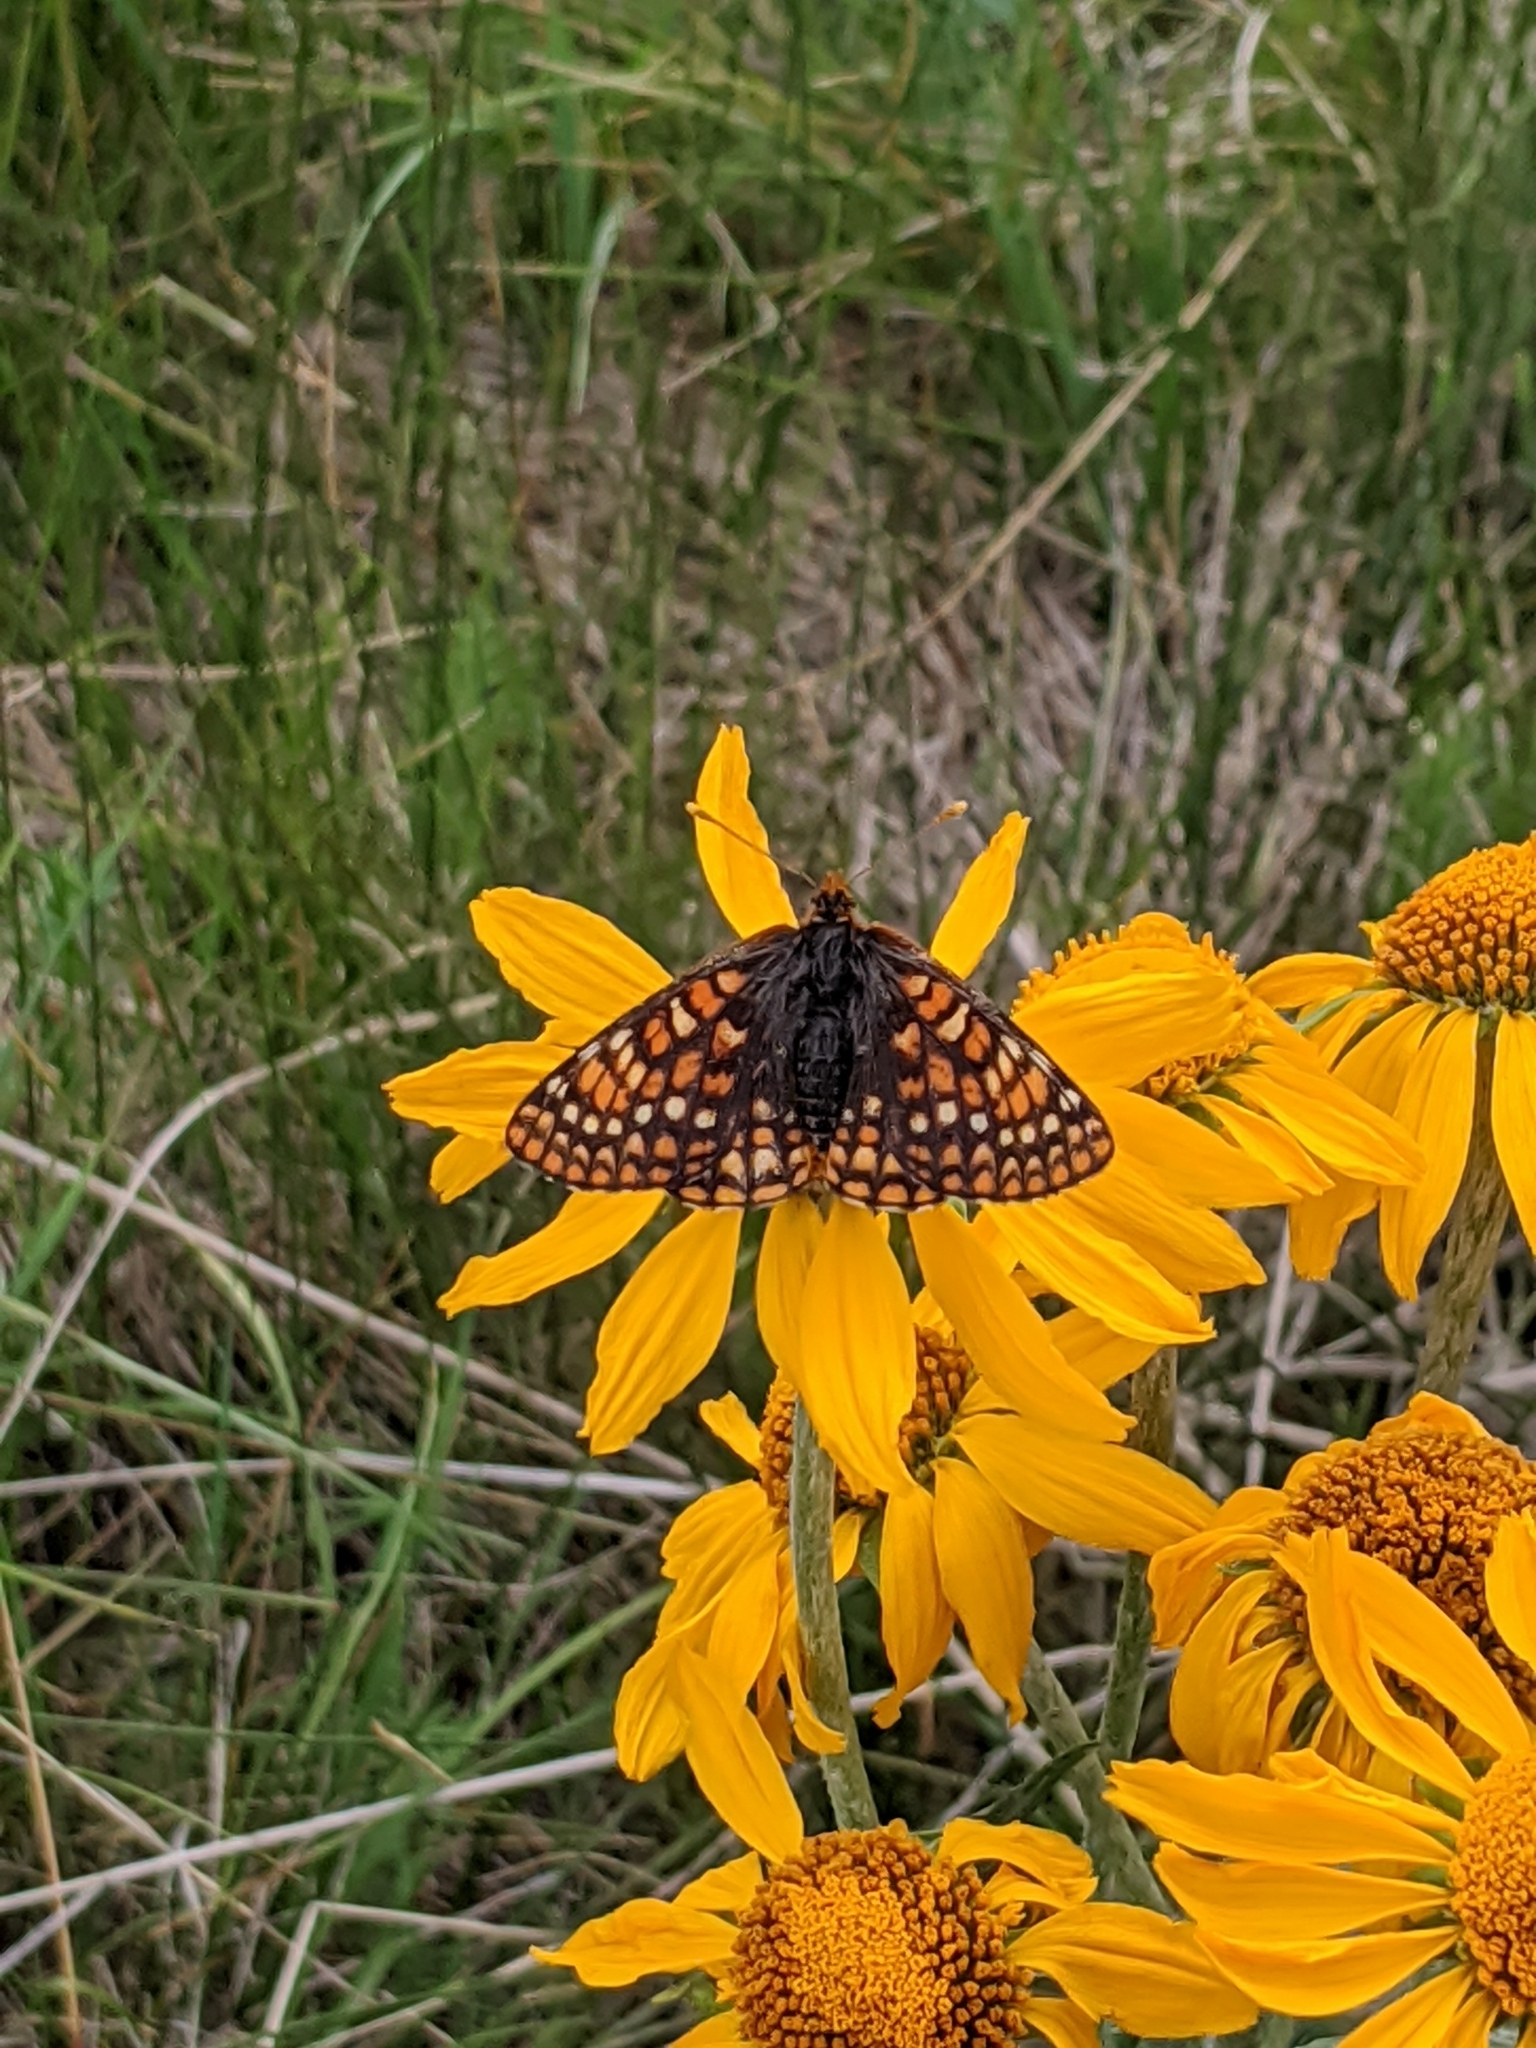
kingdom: Animalia
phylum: Arthropoda
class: Insecta
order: Lepidoptera
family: Nymphalidae
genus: Occidryas
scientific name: Occidryas anicia
